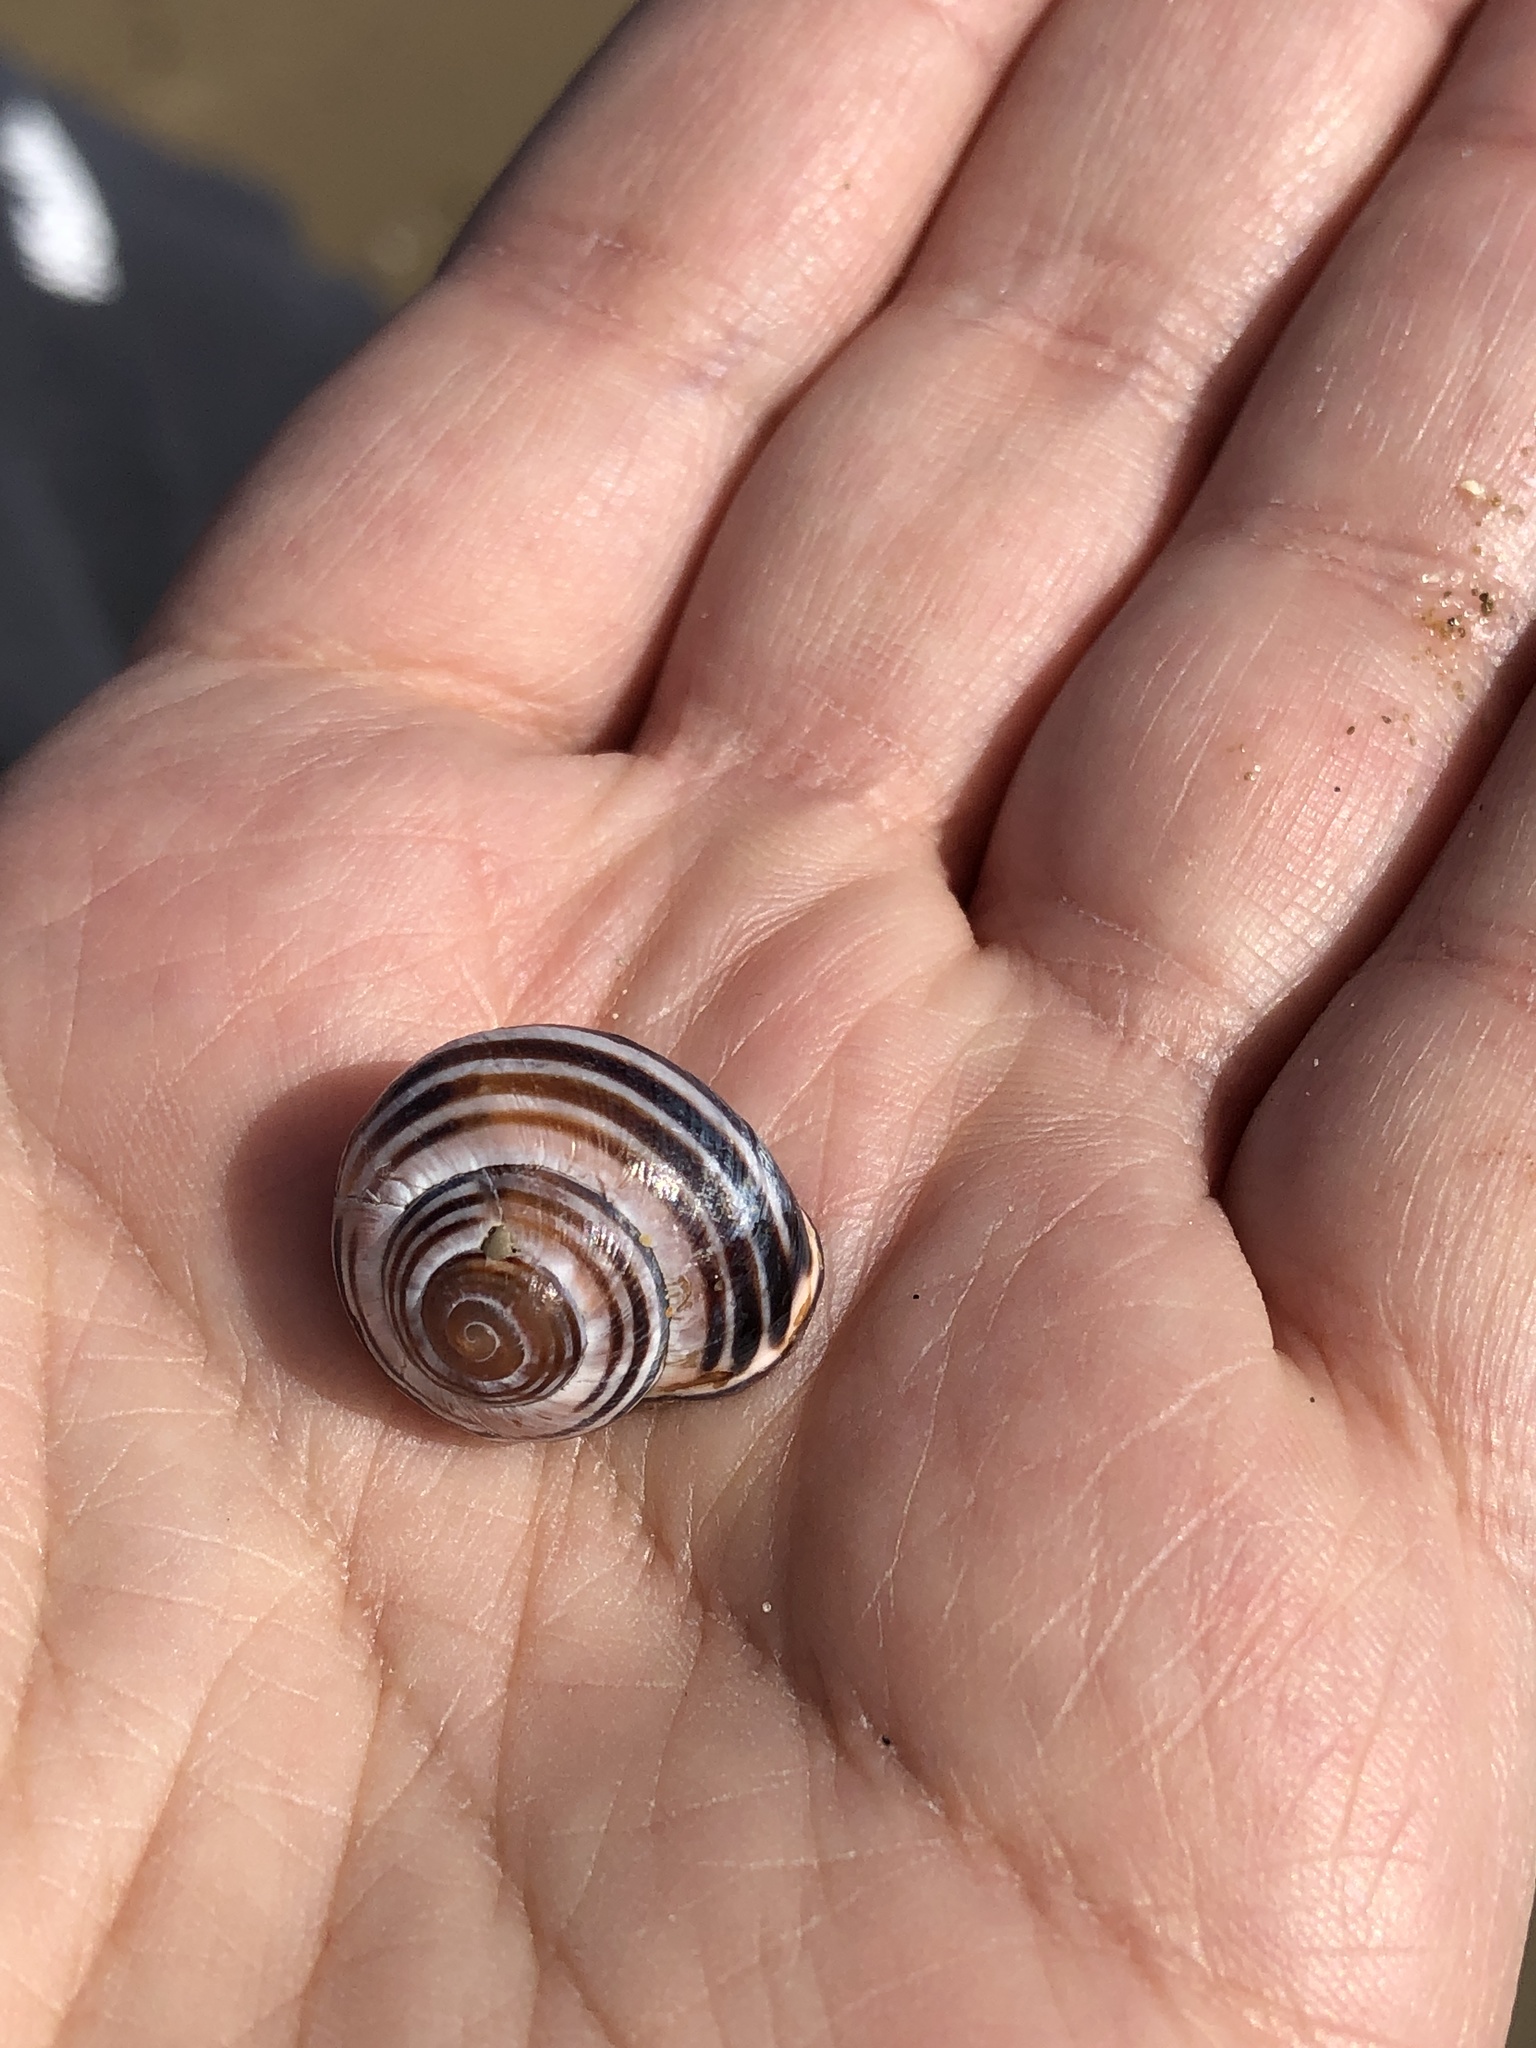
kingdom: Animalia
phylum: Mollusca
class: Gastropoda
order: Stylommatophora
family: Helicidae
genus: Cepaea
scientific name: Cepaea nemoralis
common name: Grovesnail
